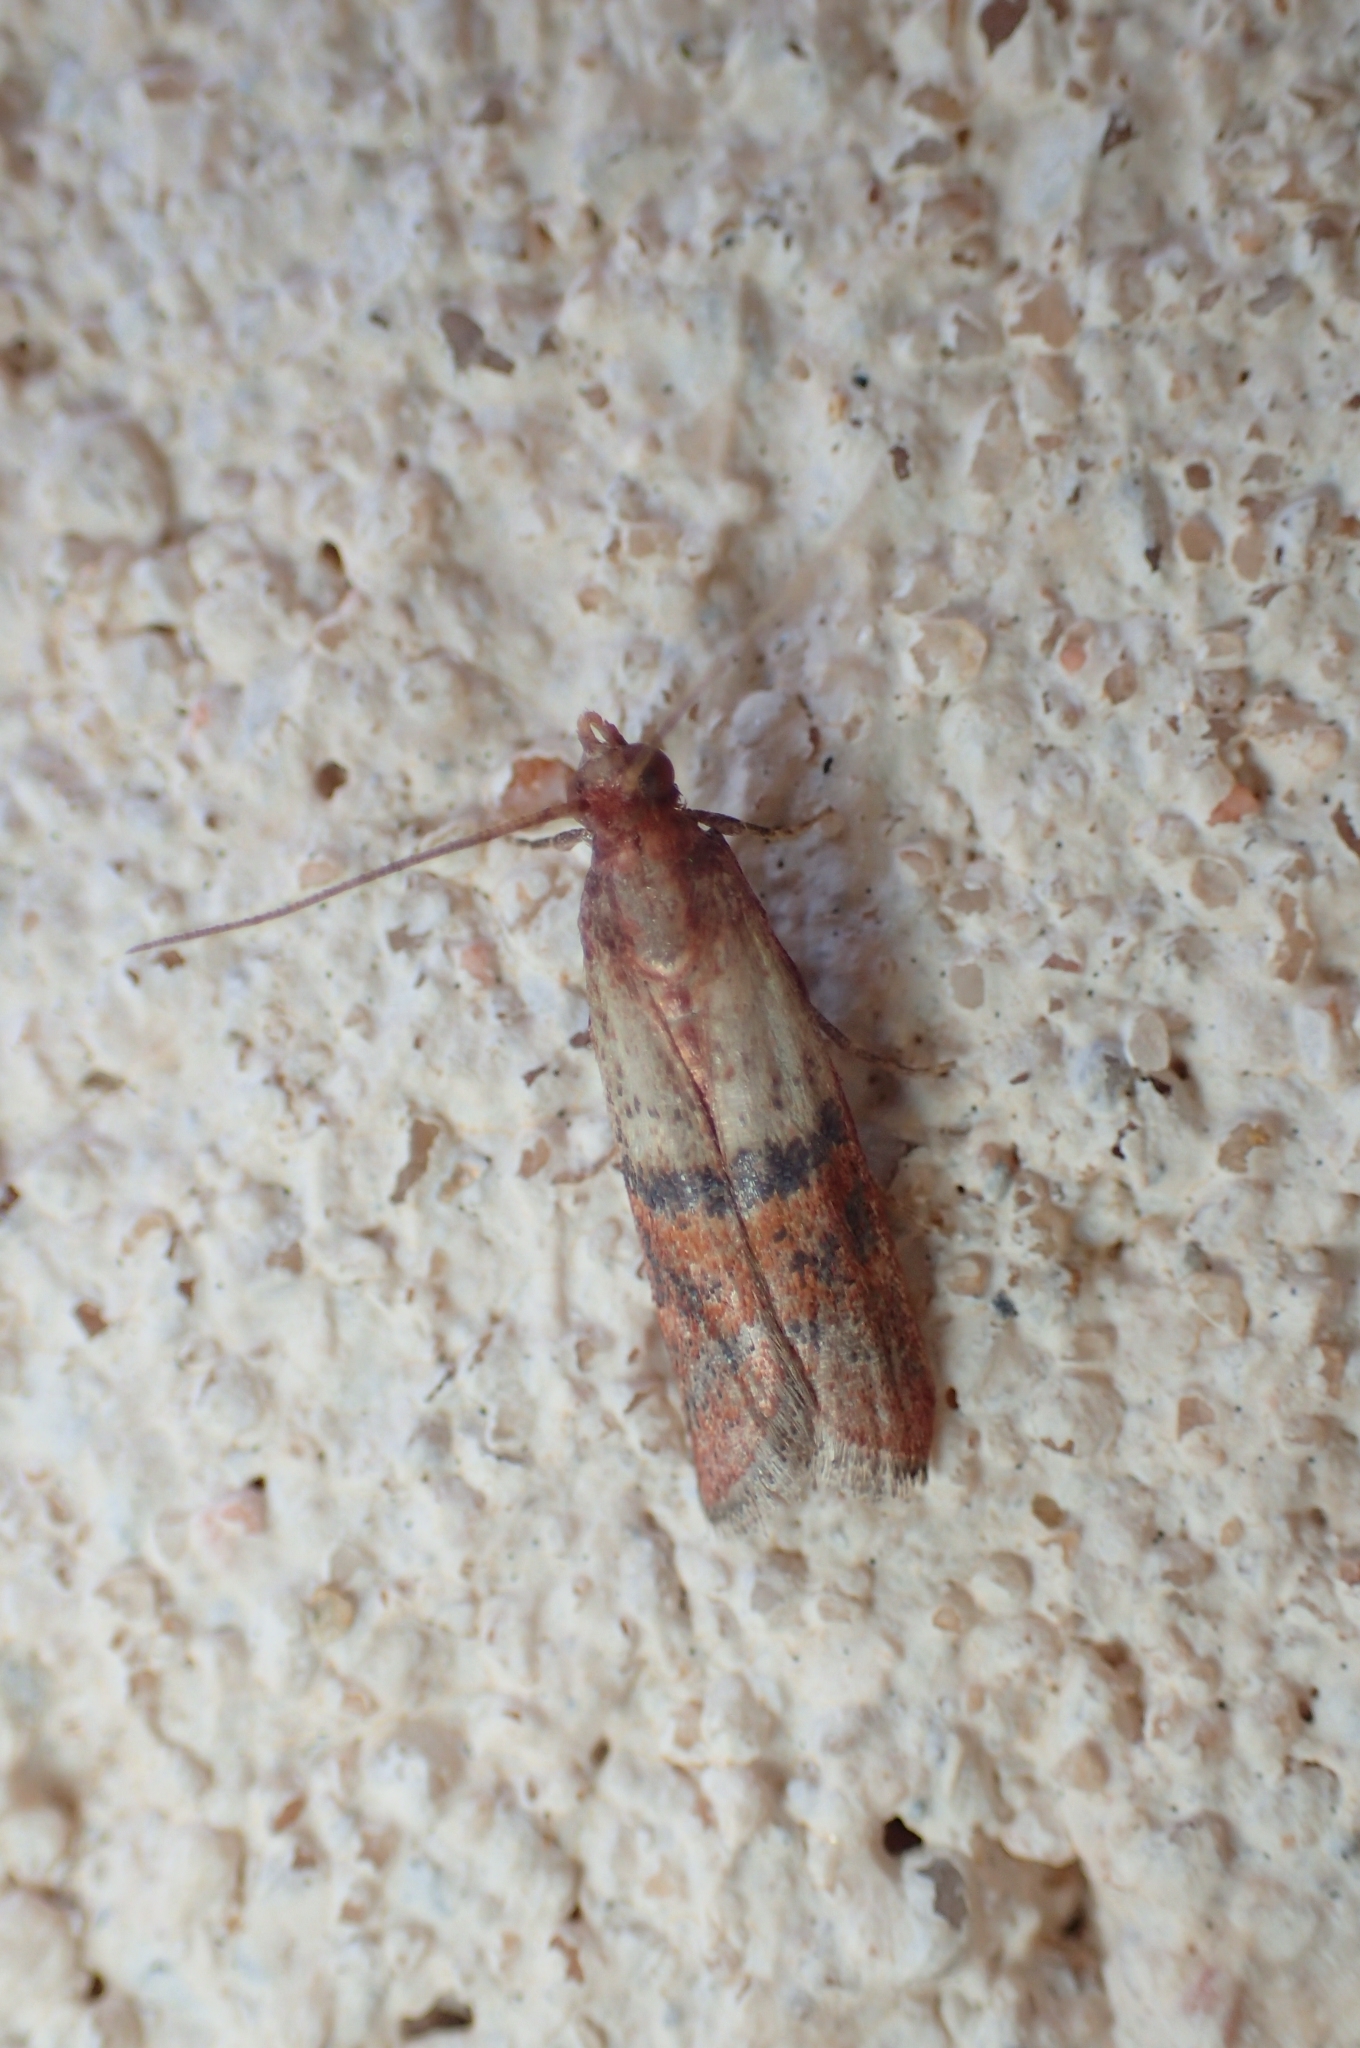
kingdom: Animalia
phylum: Arthropoda
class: Insecta
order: Lepidoptera
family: Pyralidae
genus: Plodia
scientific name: Plodia interpunctella
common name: Indian meal moth
